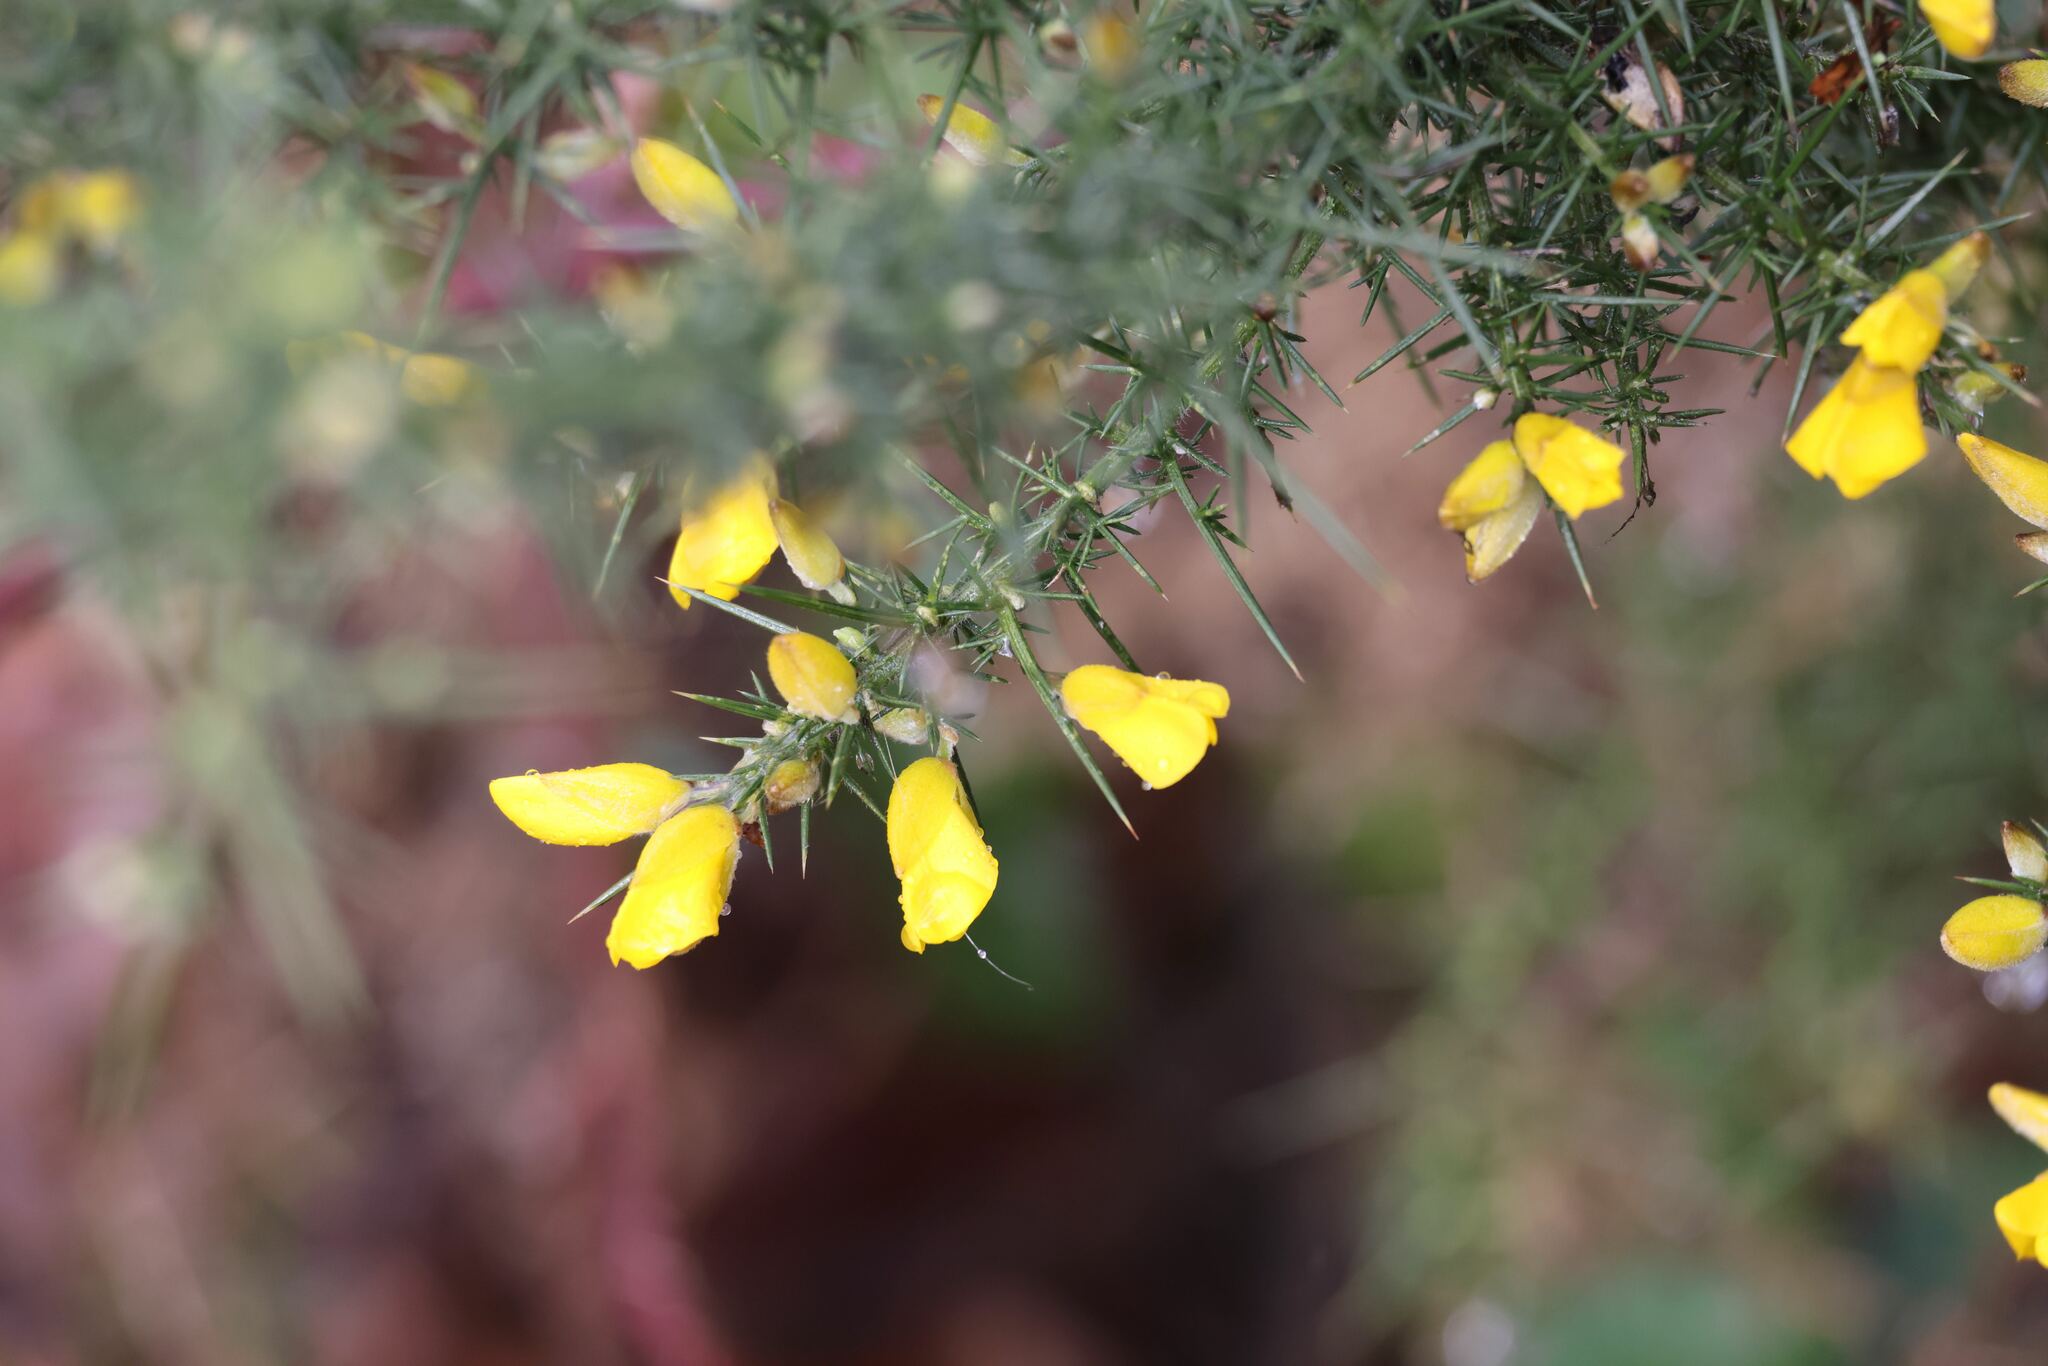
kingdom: Plantae
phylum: Tracheophyta
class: Magnoliopsida
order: Fabales
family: Fabaceae
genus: Ulex
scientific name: Ulex europaeus
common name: Common gorse
